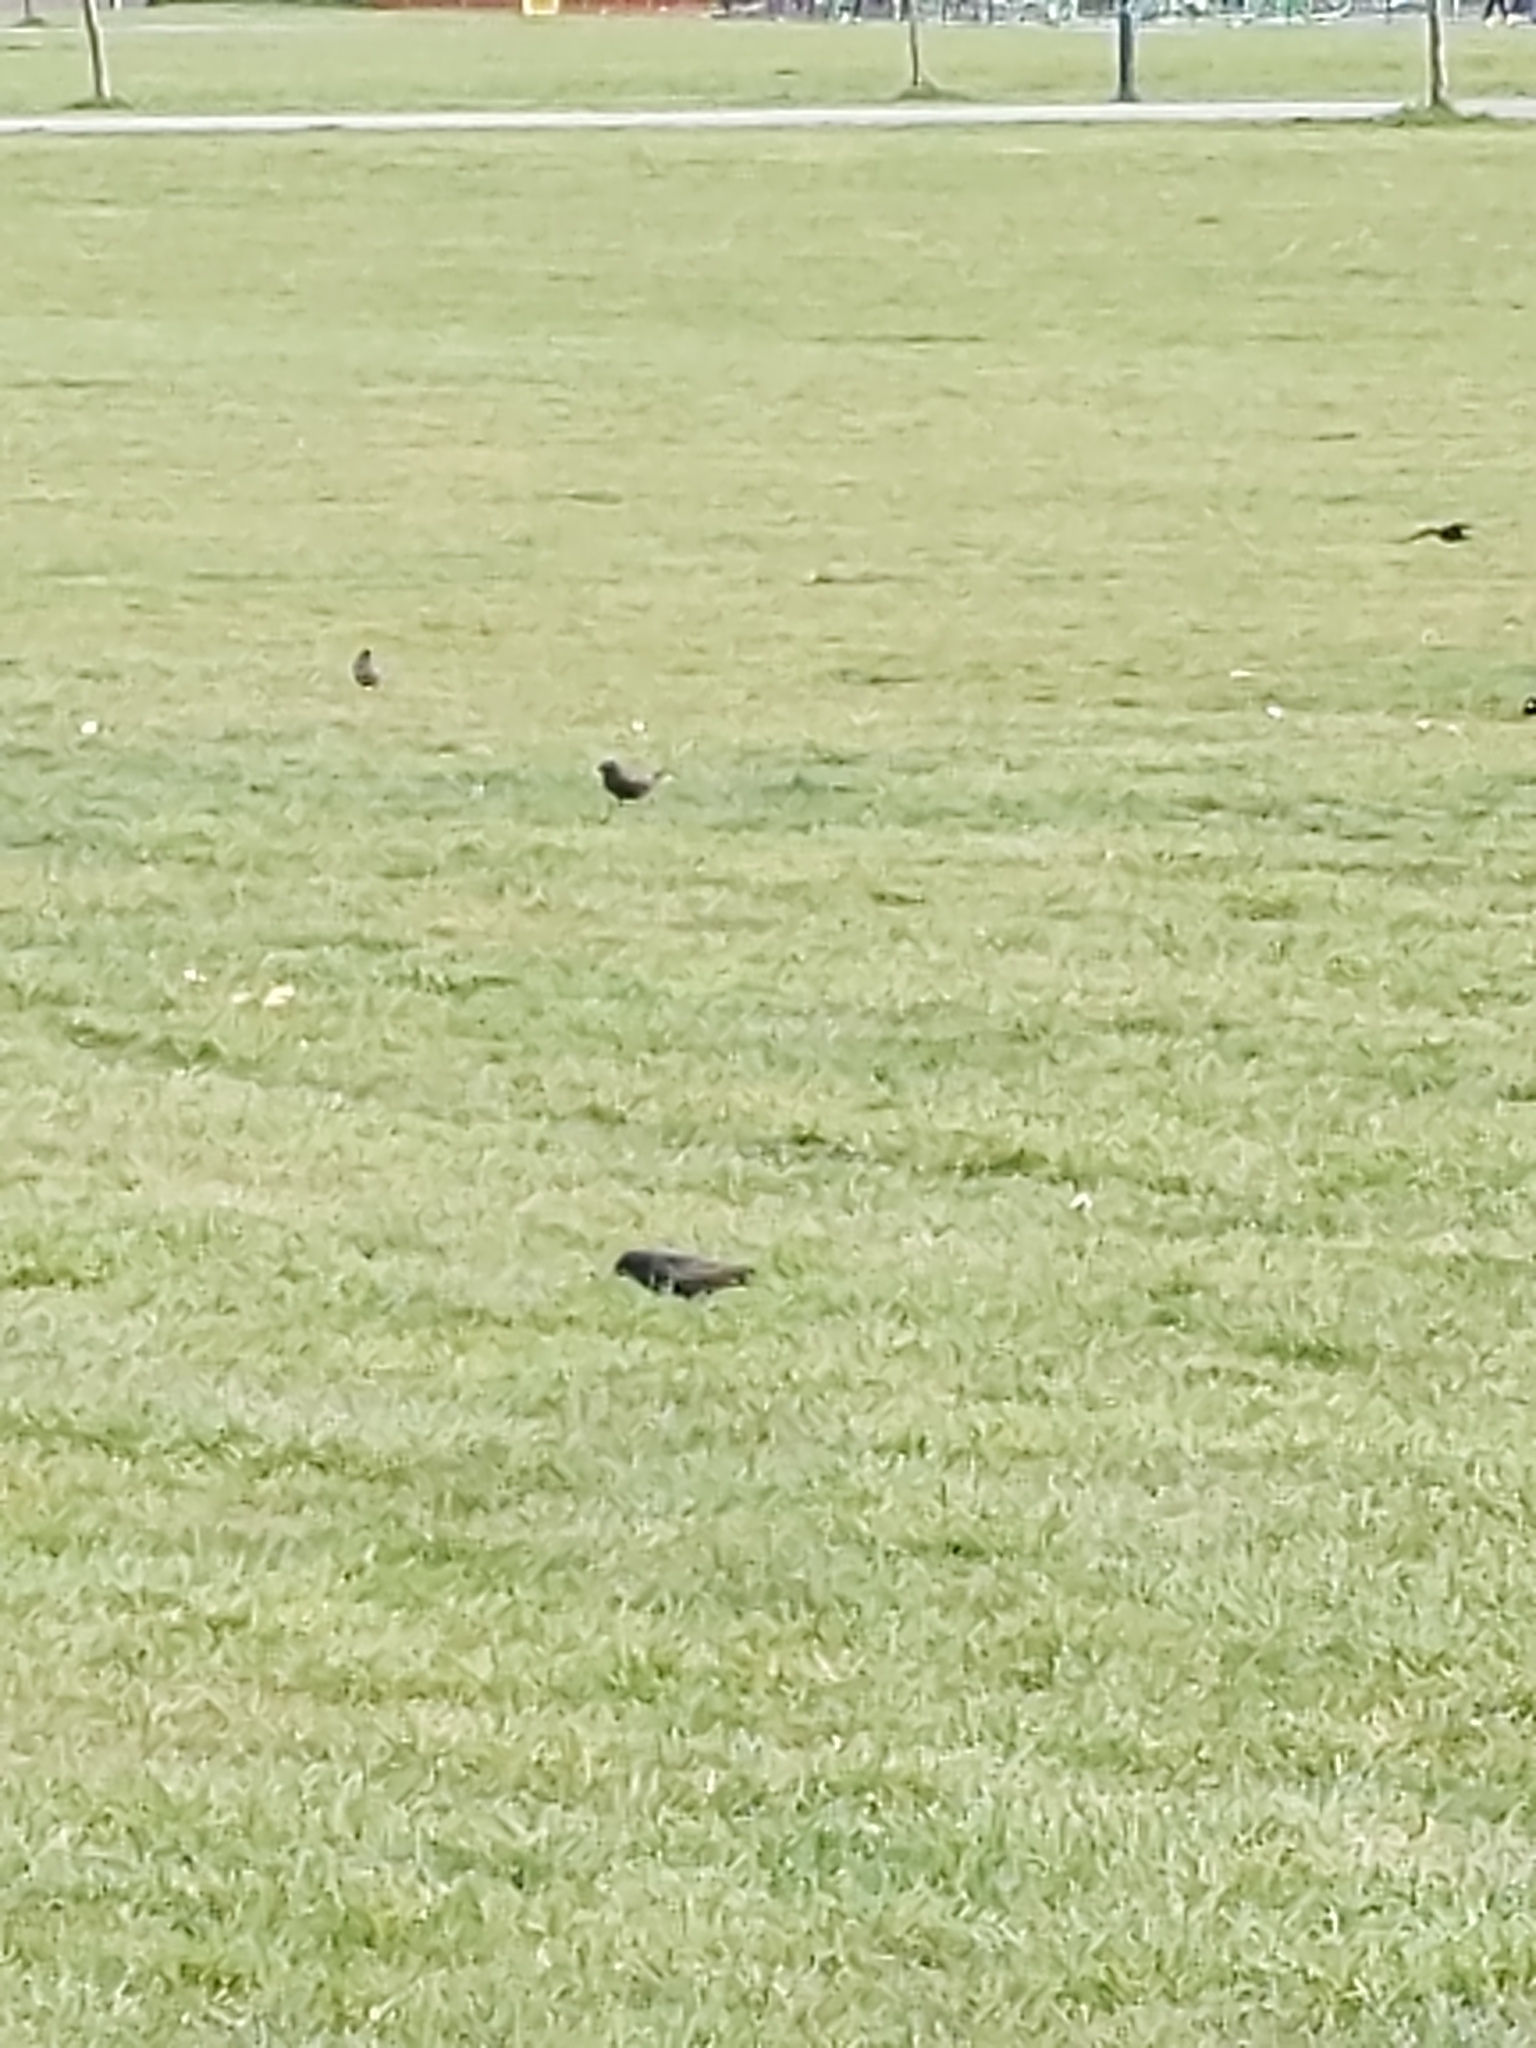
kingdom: Animalia
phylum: Chordata
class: Aves
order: Passeriformes
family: Sturnidae
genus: Sturnus
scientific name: Sturnus vulgaris
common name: Common starling
